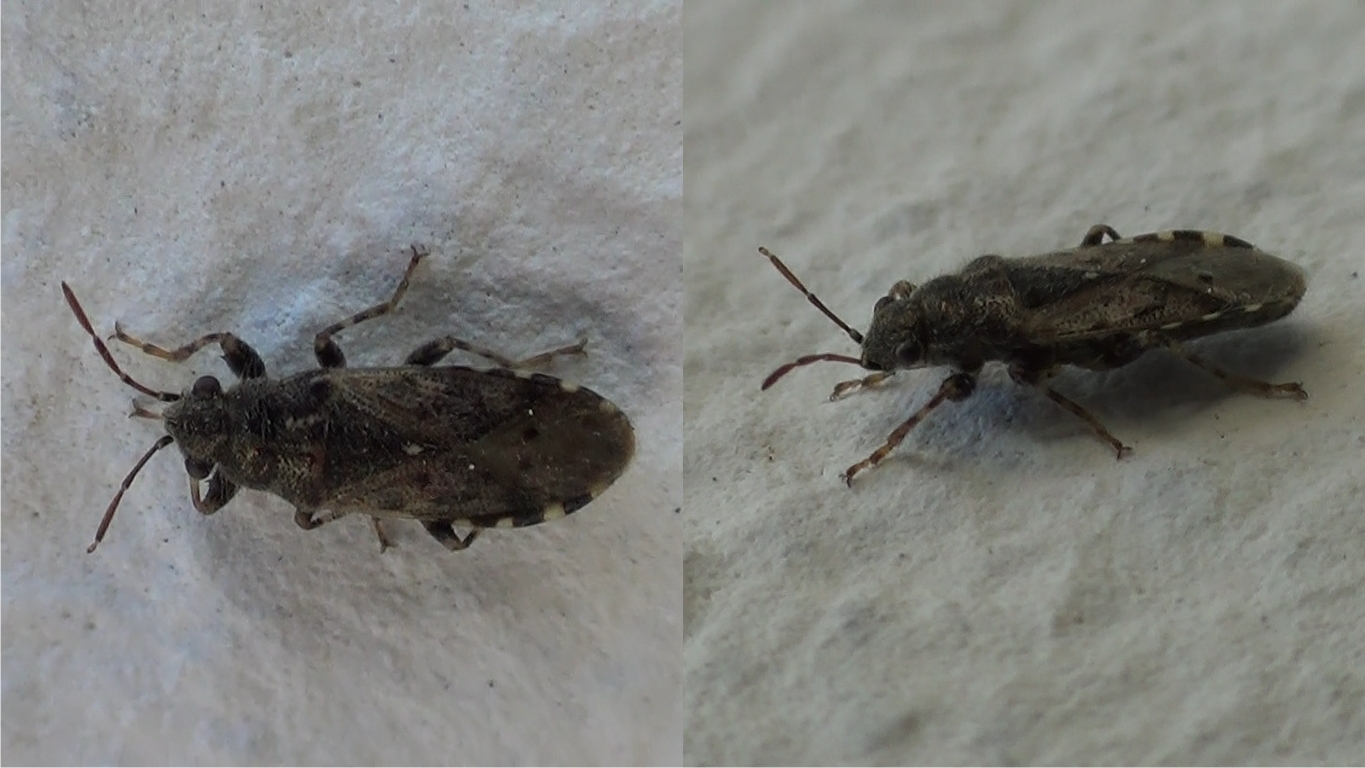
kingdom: Animalia
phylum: Arthropoda
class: Insecta
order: Hemiptera
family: Heterogastridae
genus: Heterogaster
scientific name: Heterogaster urticae
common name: Seed bug
